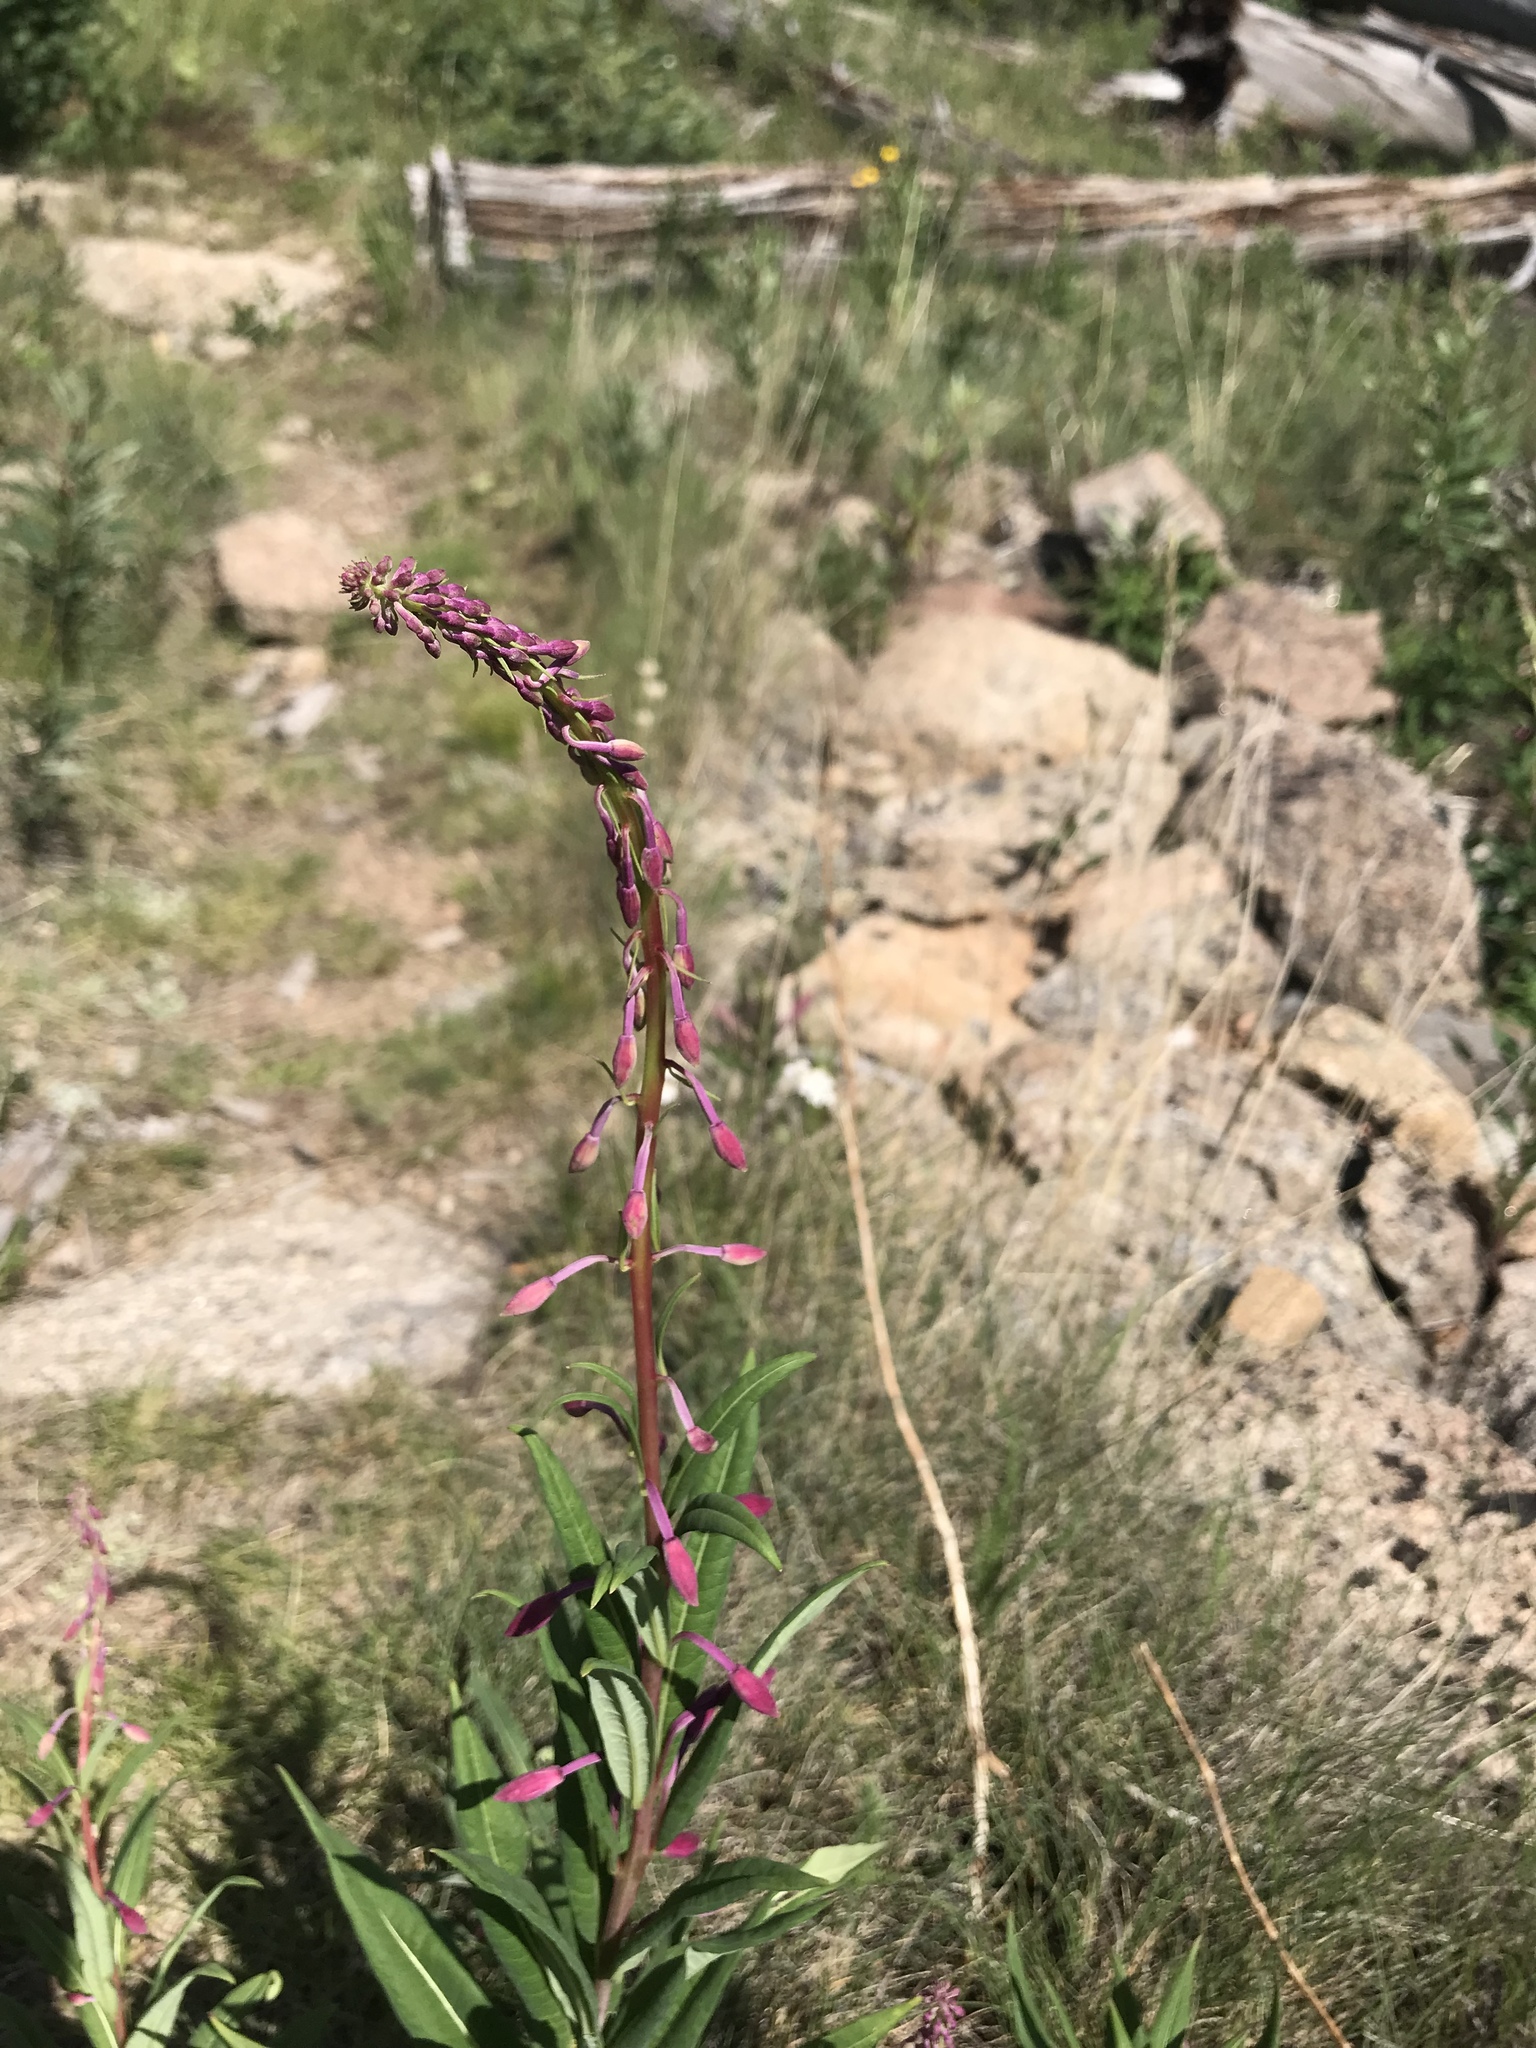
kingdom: Plantae
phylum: Tracheophyta
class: Magnoliopsida
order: Myrtales
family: Onagraceae
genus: Chamaenerion
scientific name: Chamaenerion angustifolium
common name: Fireweed
